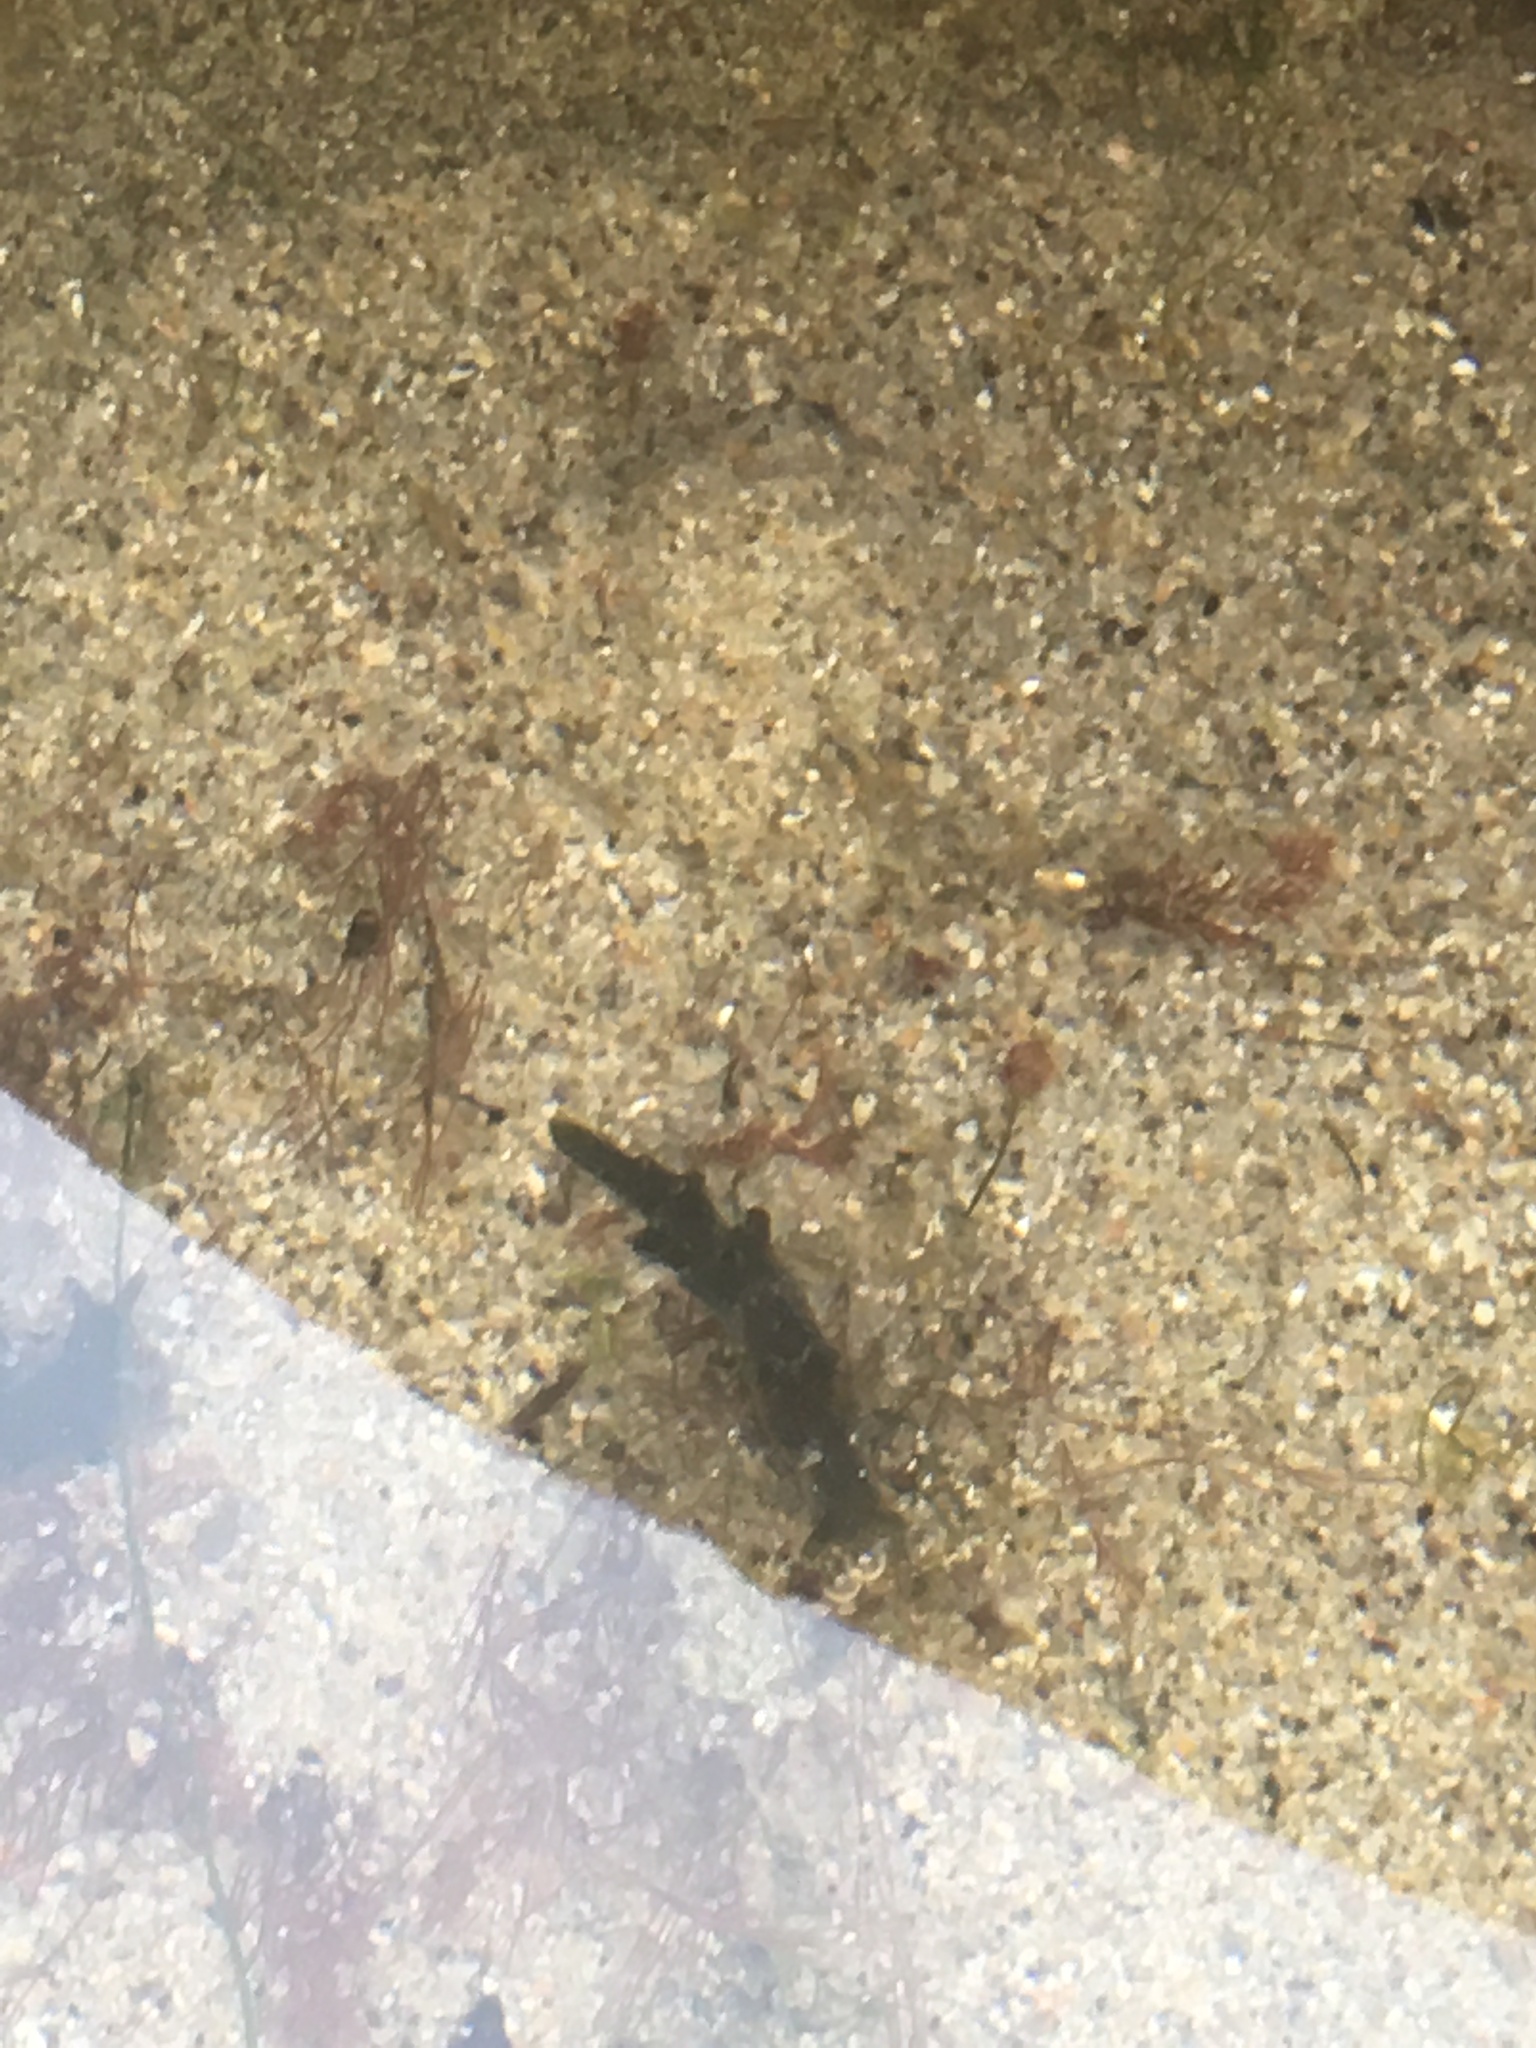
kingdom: Animalia
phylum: Mollusca
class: Gastropoda
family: Plakobranchidae
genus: Elysia
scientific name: Elysia hedgpethi
